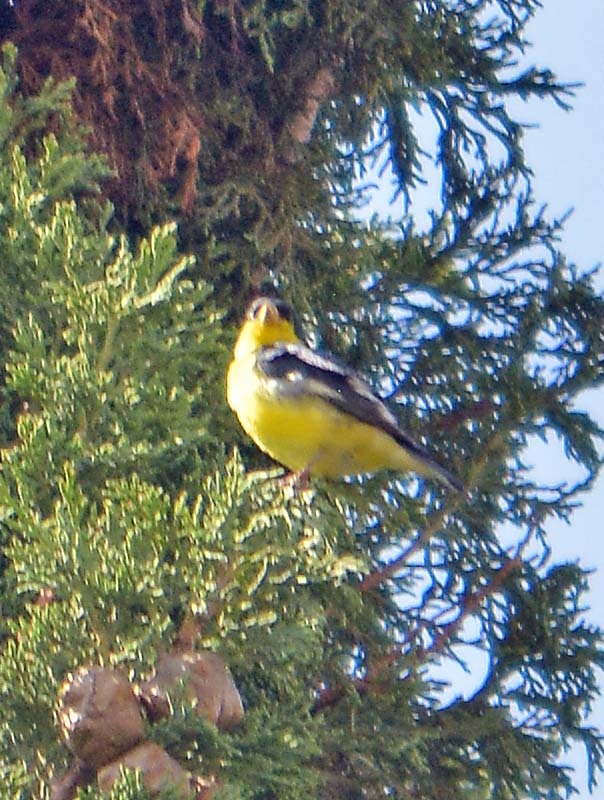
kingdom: Animalia
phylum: Chordata
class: Aves
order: Passeriformes
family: Fringillidae
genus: Spinus
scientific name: Spinus psaltria
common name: Lesser goldfinch
